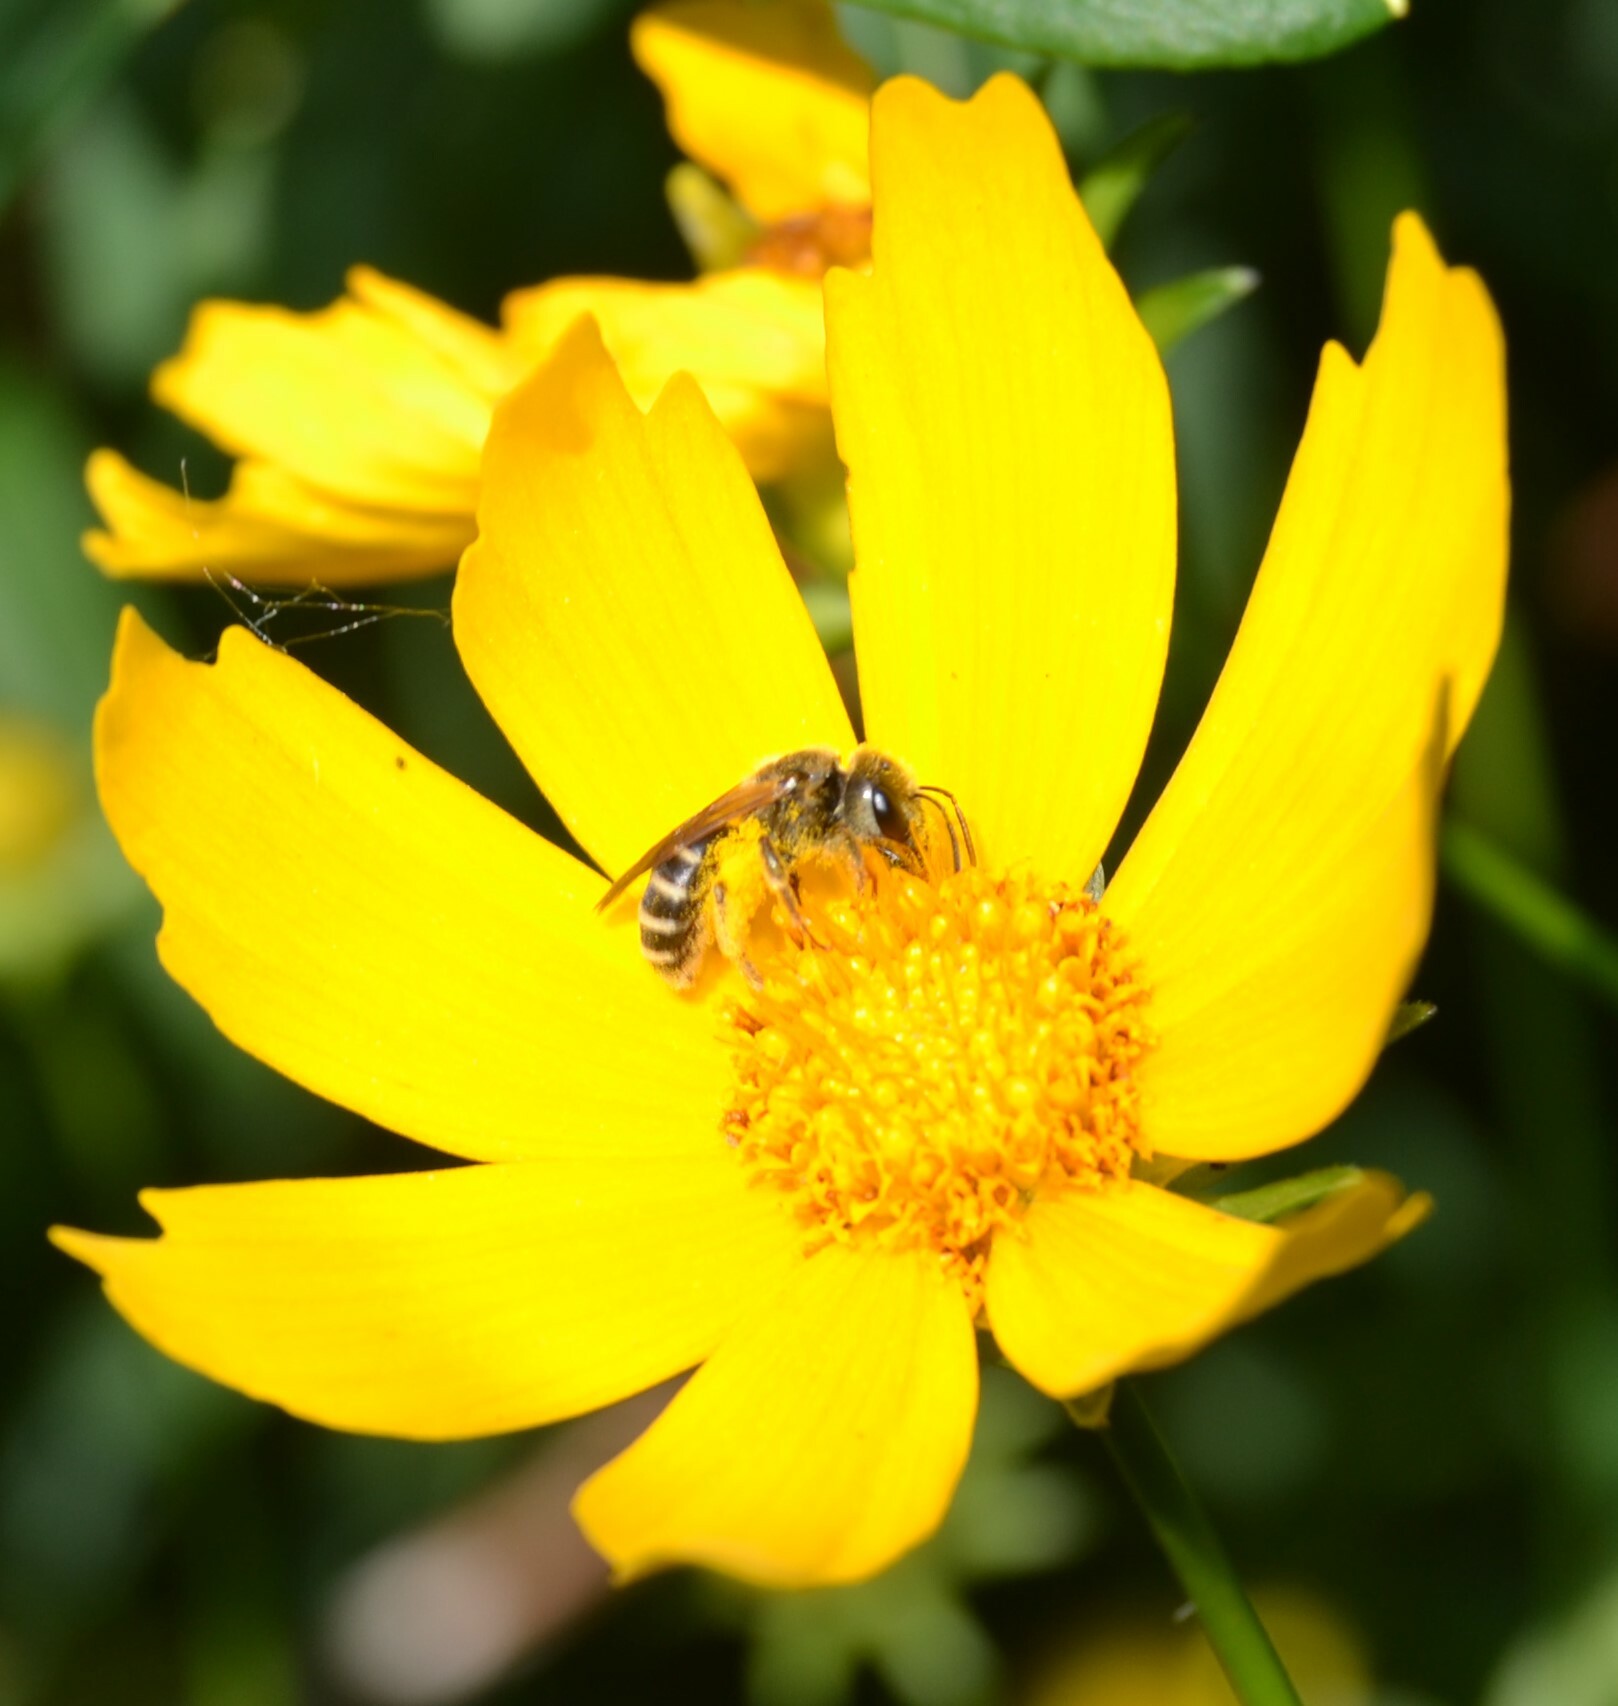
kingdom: Animalia
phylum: Arthropoda
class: Insecta
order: Hymenoptera
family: Halictidae
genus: Halictus
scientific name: Halictus ligatus
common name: Ligated furrow bee
